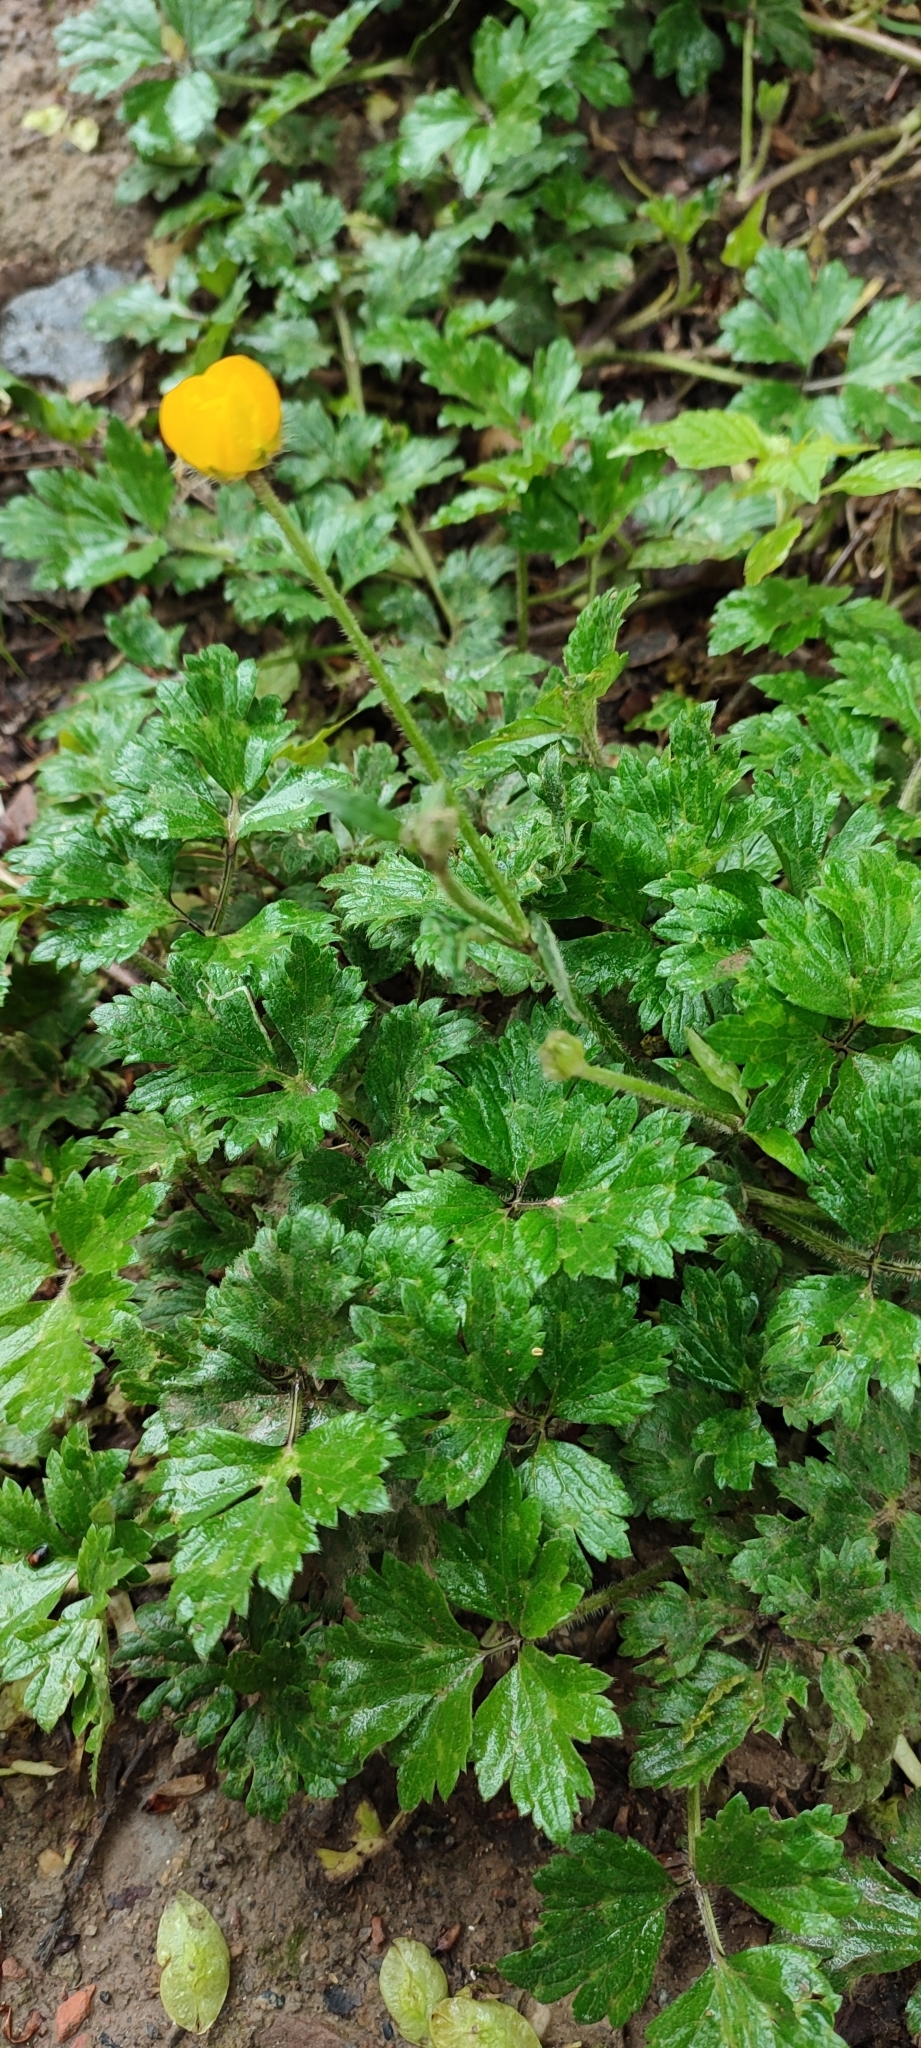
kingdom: Plantae
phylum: Tracheophyta
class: Magnoliopsida
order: Ranunculales
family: Ranunculaceae
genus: Ranunculus
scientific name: Ranunculus repens
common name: Creeping buttercup
